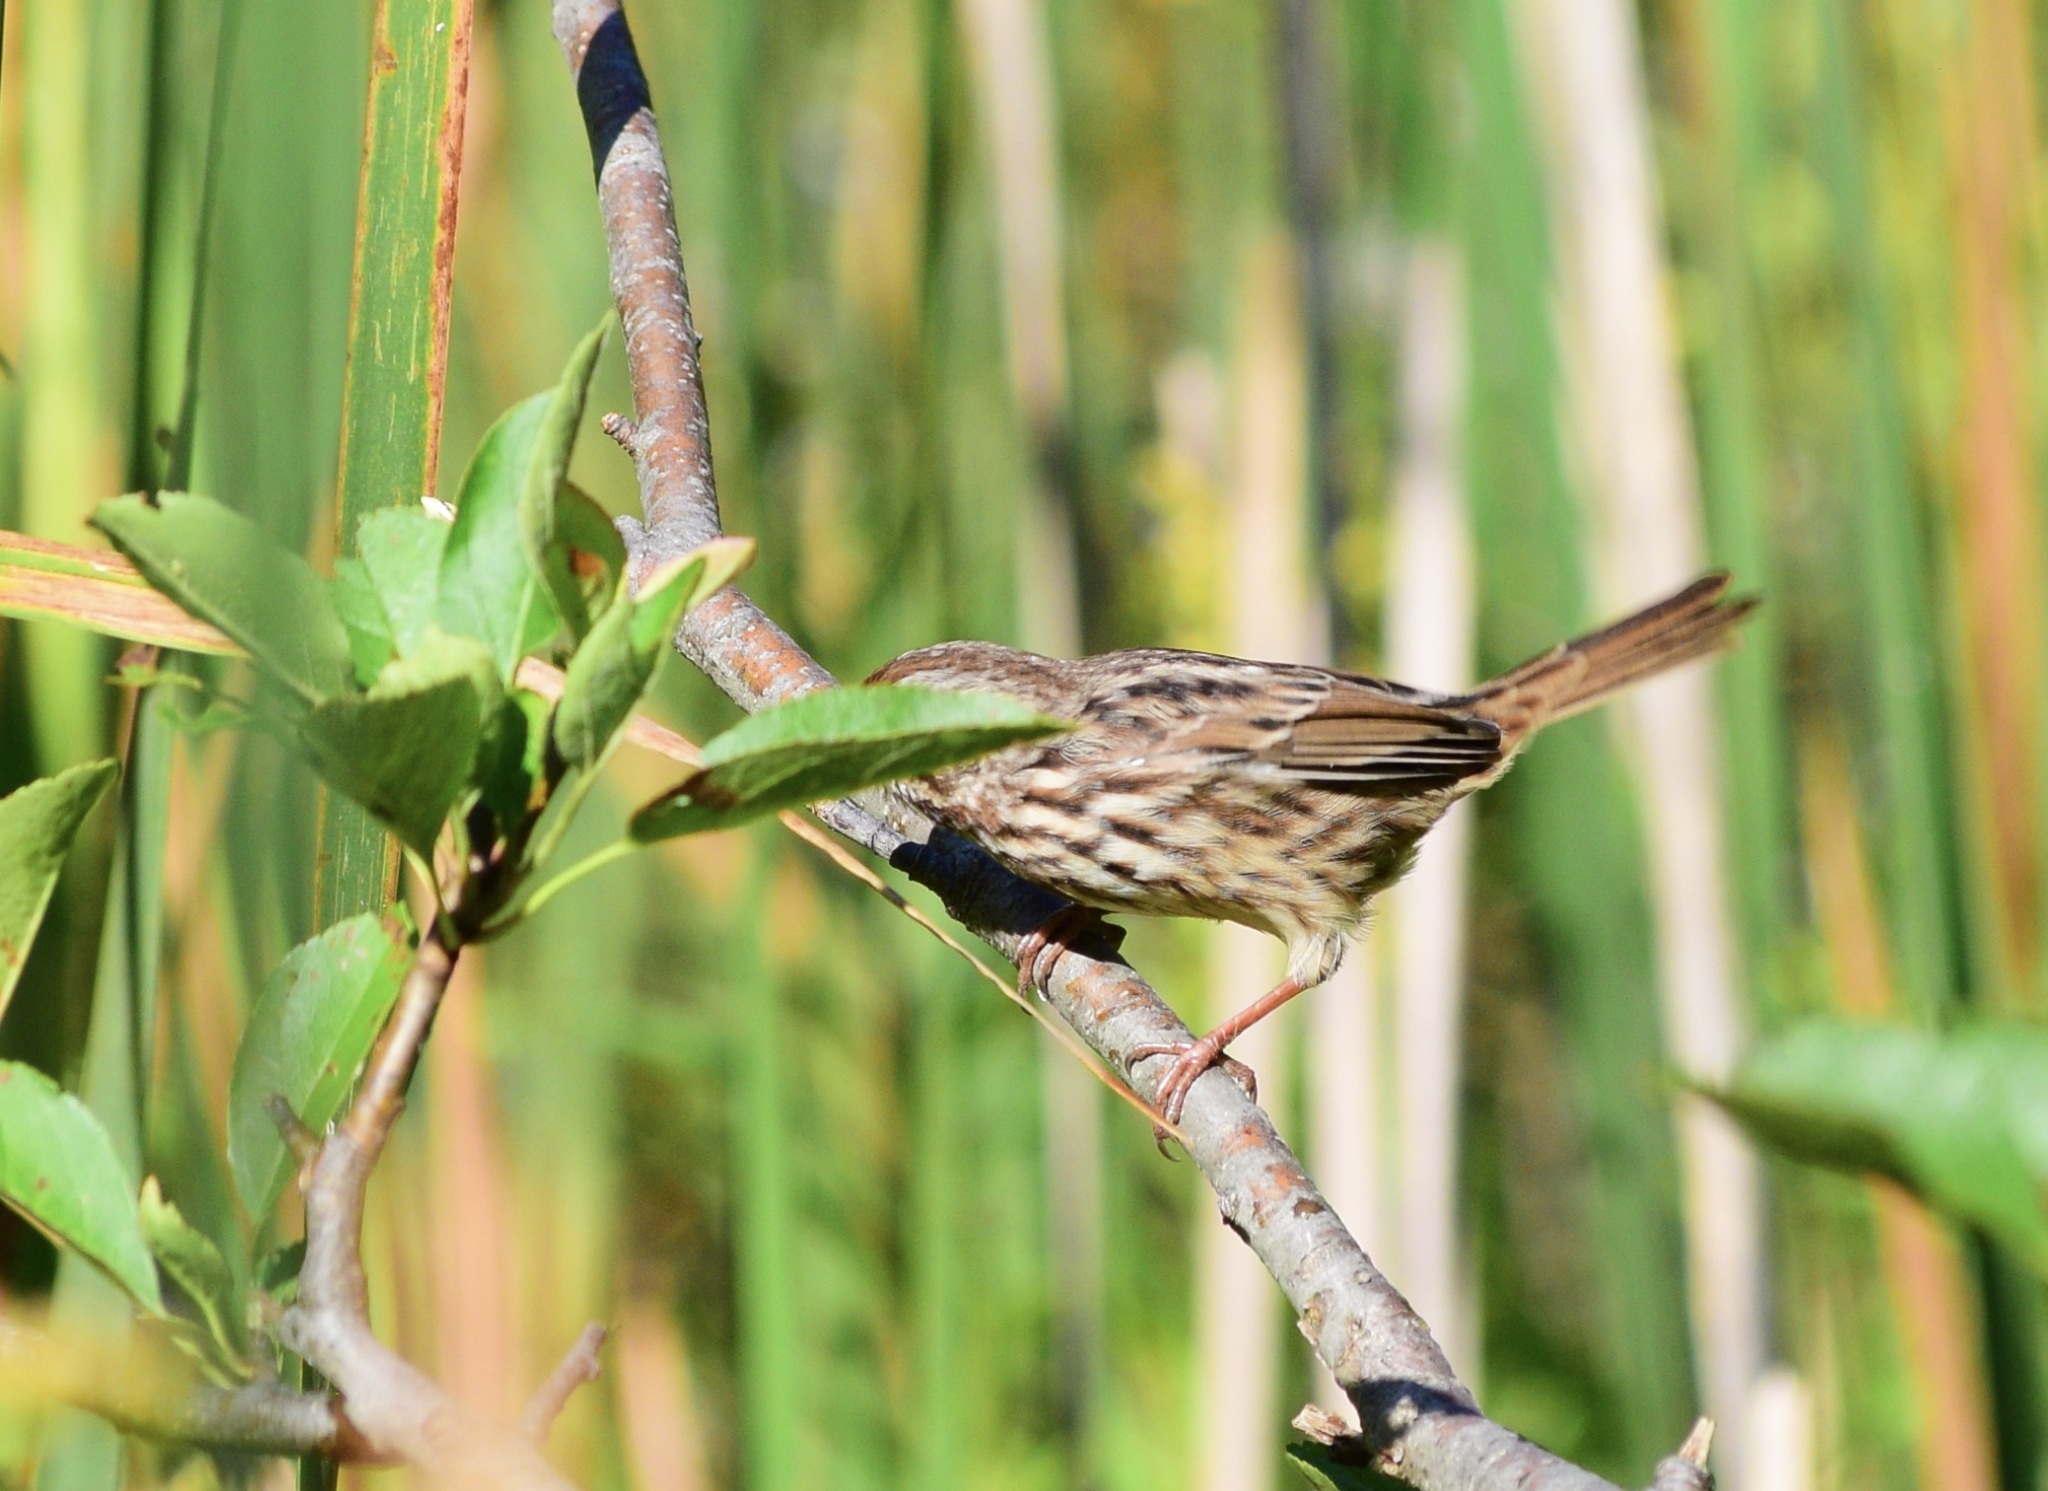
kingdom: Animalia
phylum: Chordata
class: Aves
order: Passeriformes
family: Passerellidae
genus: Melospiza
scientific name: Melospiza melodia
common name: Song sparrow
